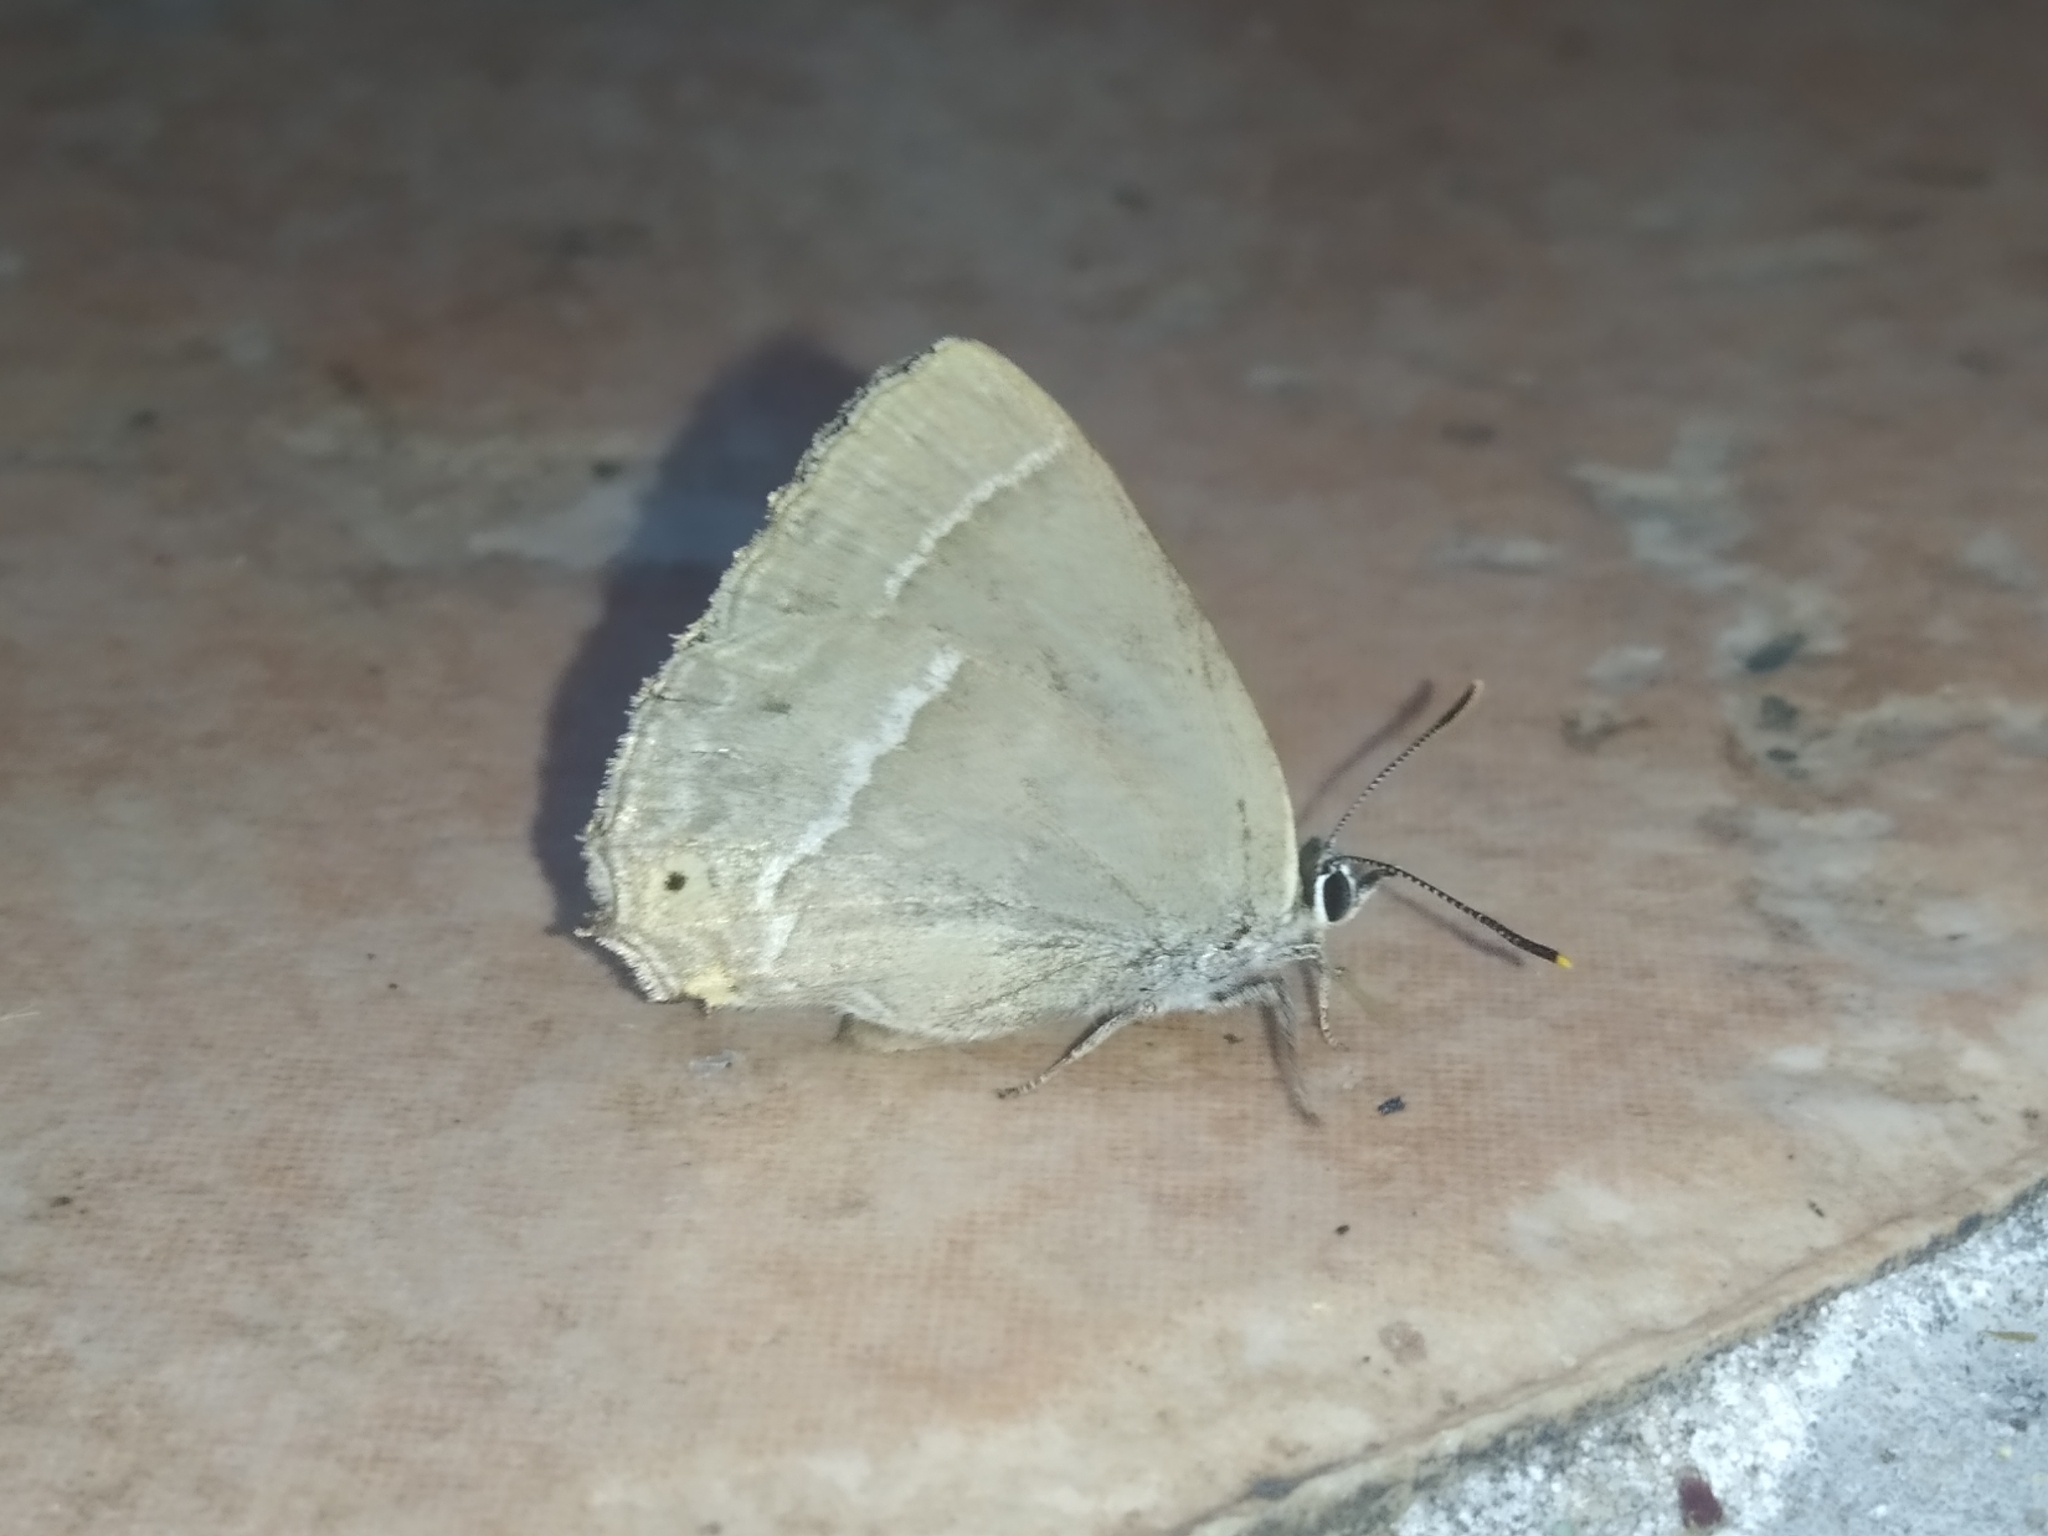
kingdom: Animalia
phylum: Arthropoda
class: Insecta
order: Lepidoptera
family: Lycaenidae
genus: Quercusia
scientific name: Quercusia quercus
